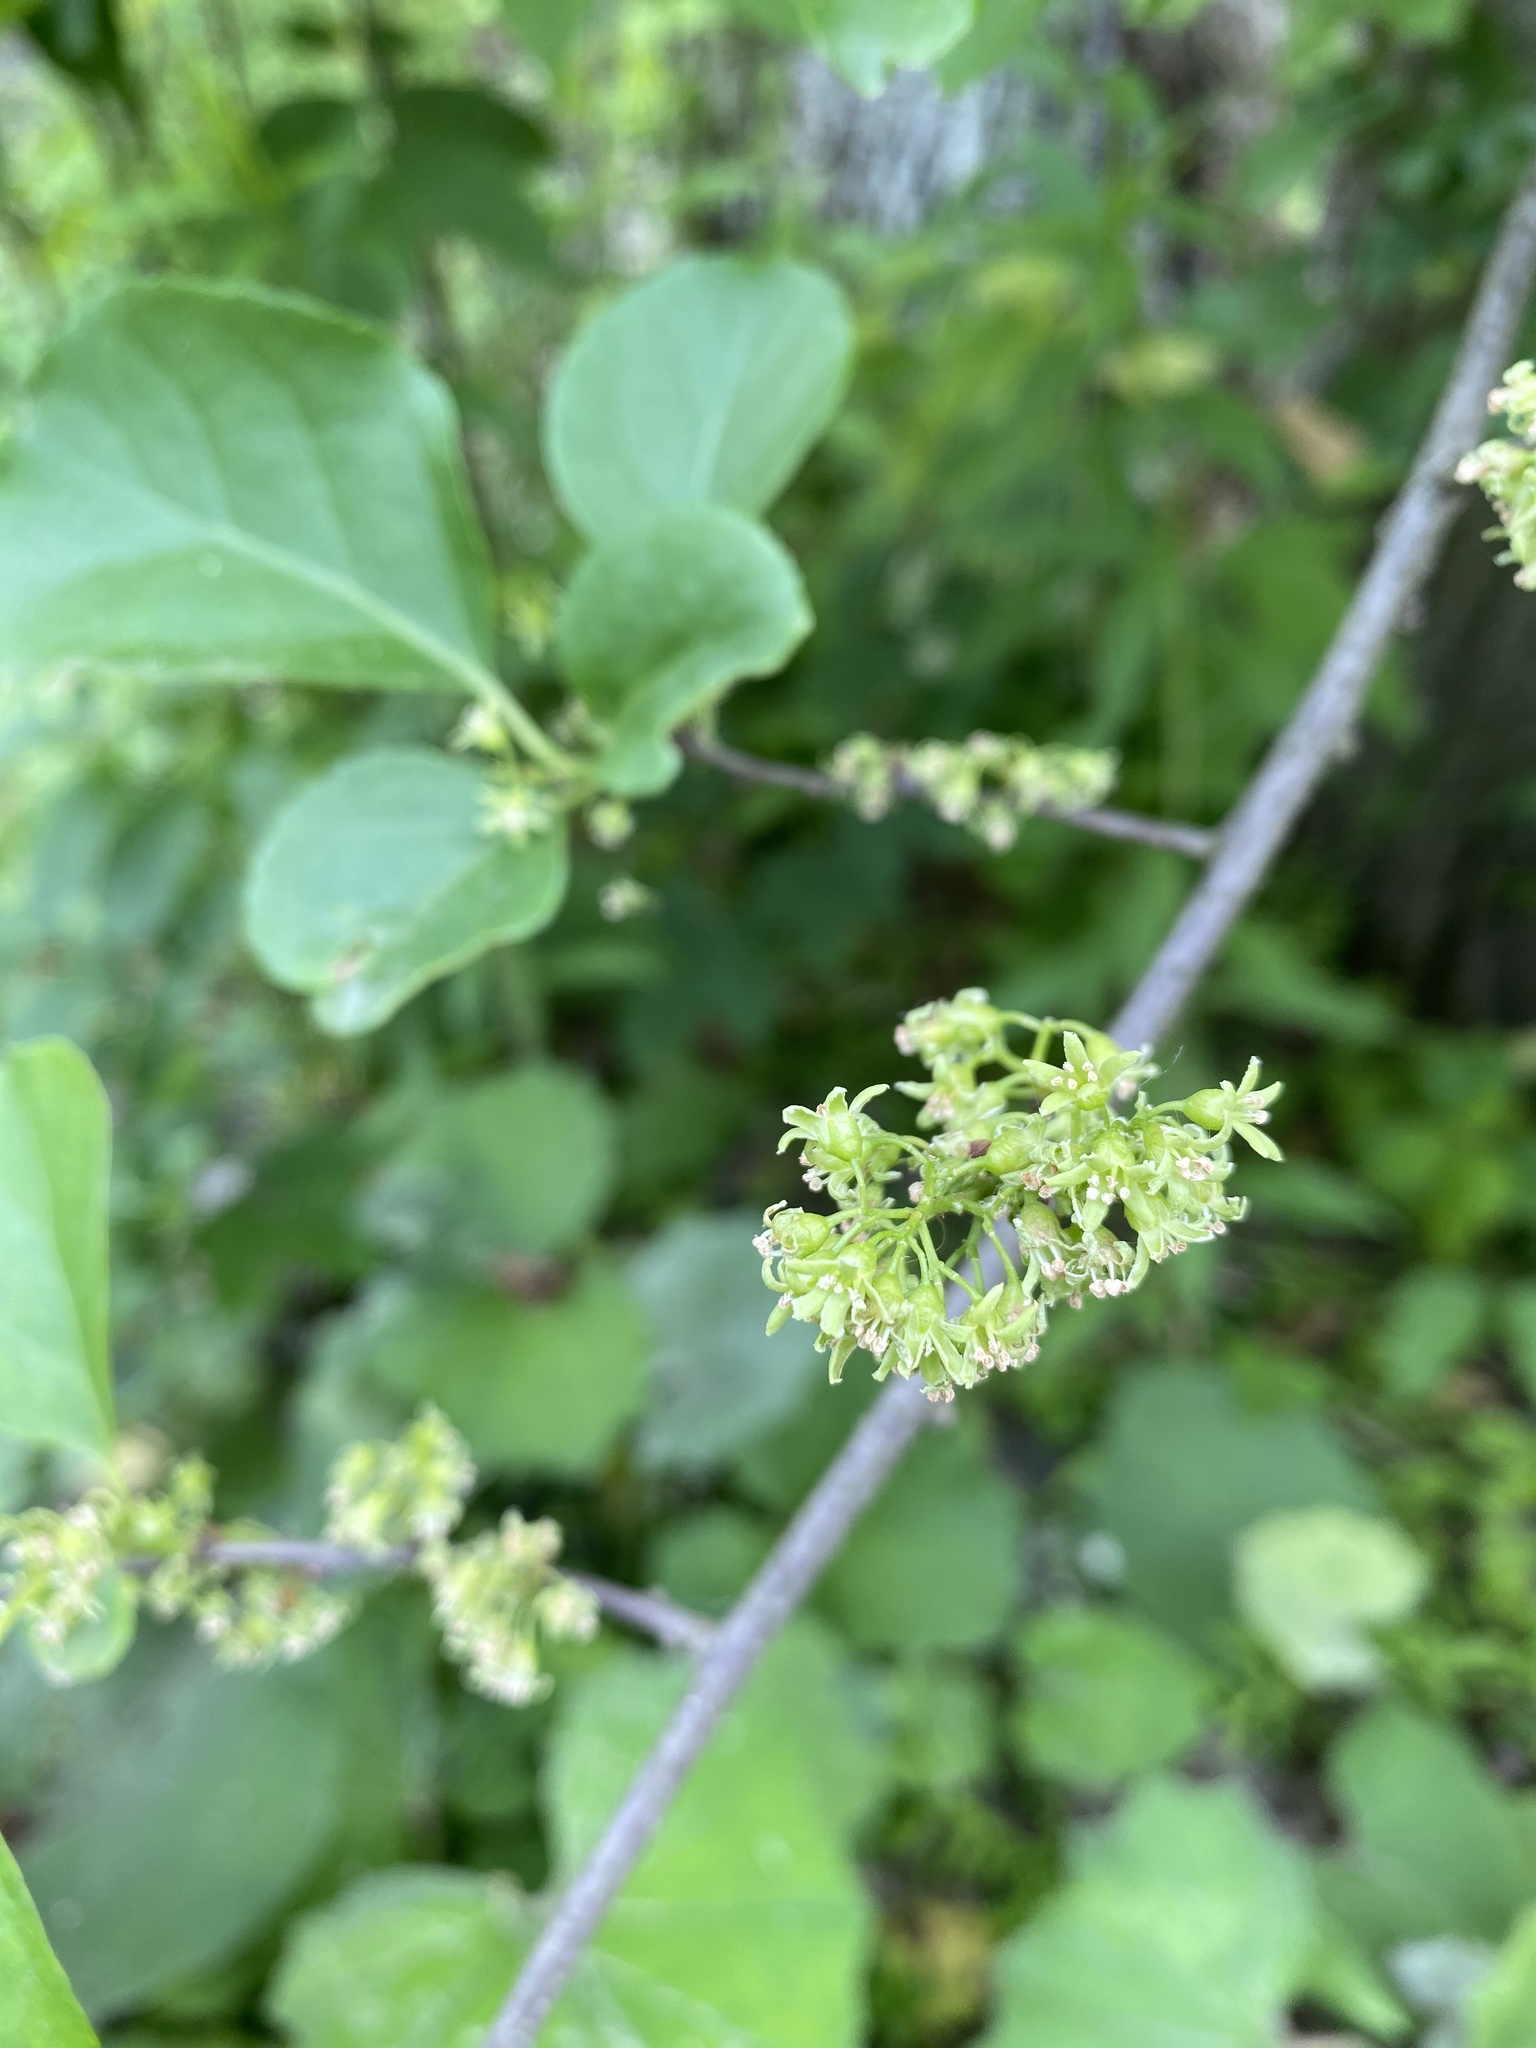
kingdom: Plantae
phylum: Tracheophyta
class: Magnoliopsida
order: Celastrales
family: Celastraceae
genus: Celastrus
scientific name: Celastrus orbiculatus
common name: Oriental bittersweet
